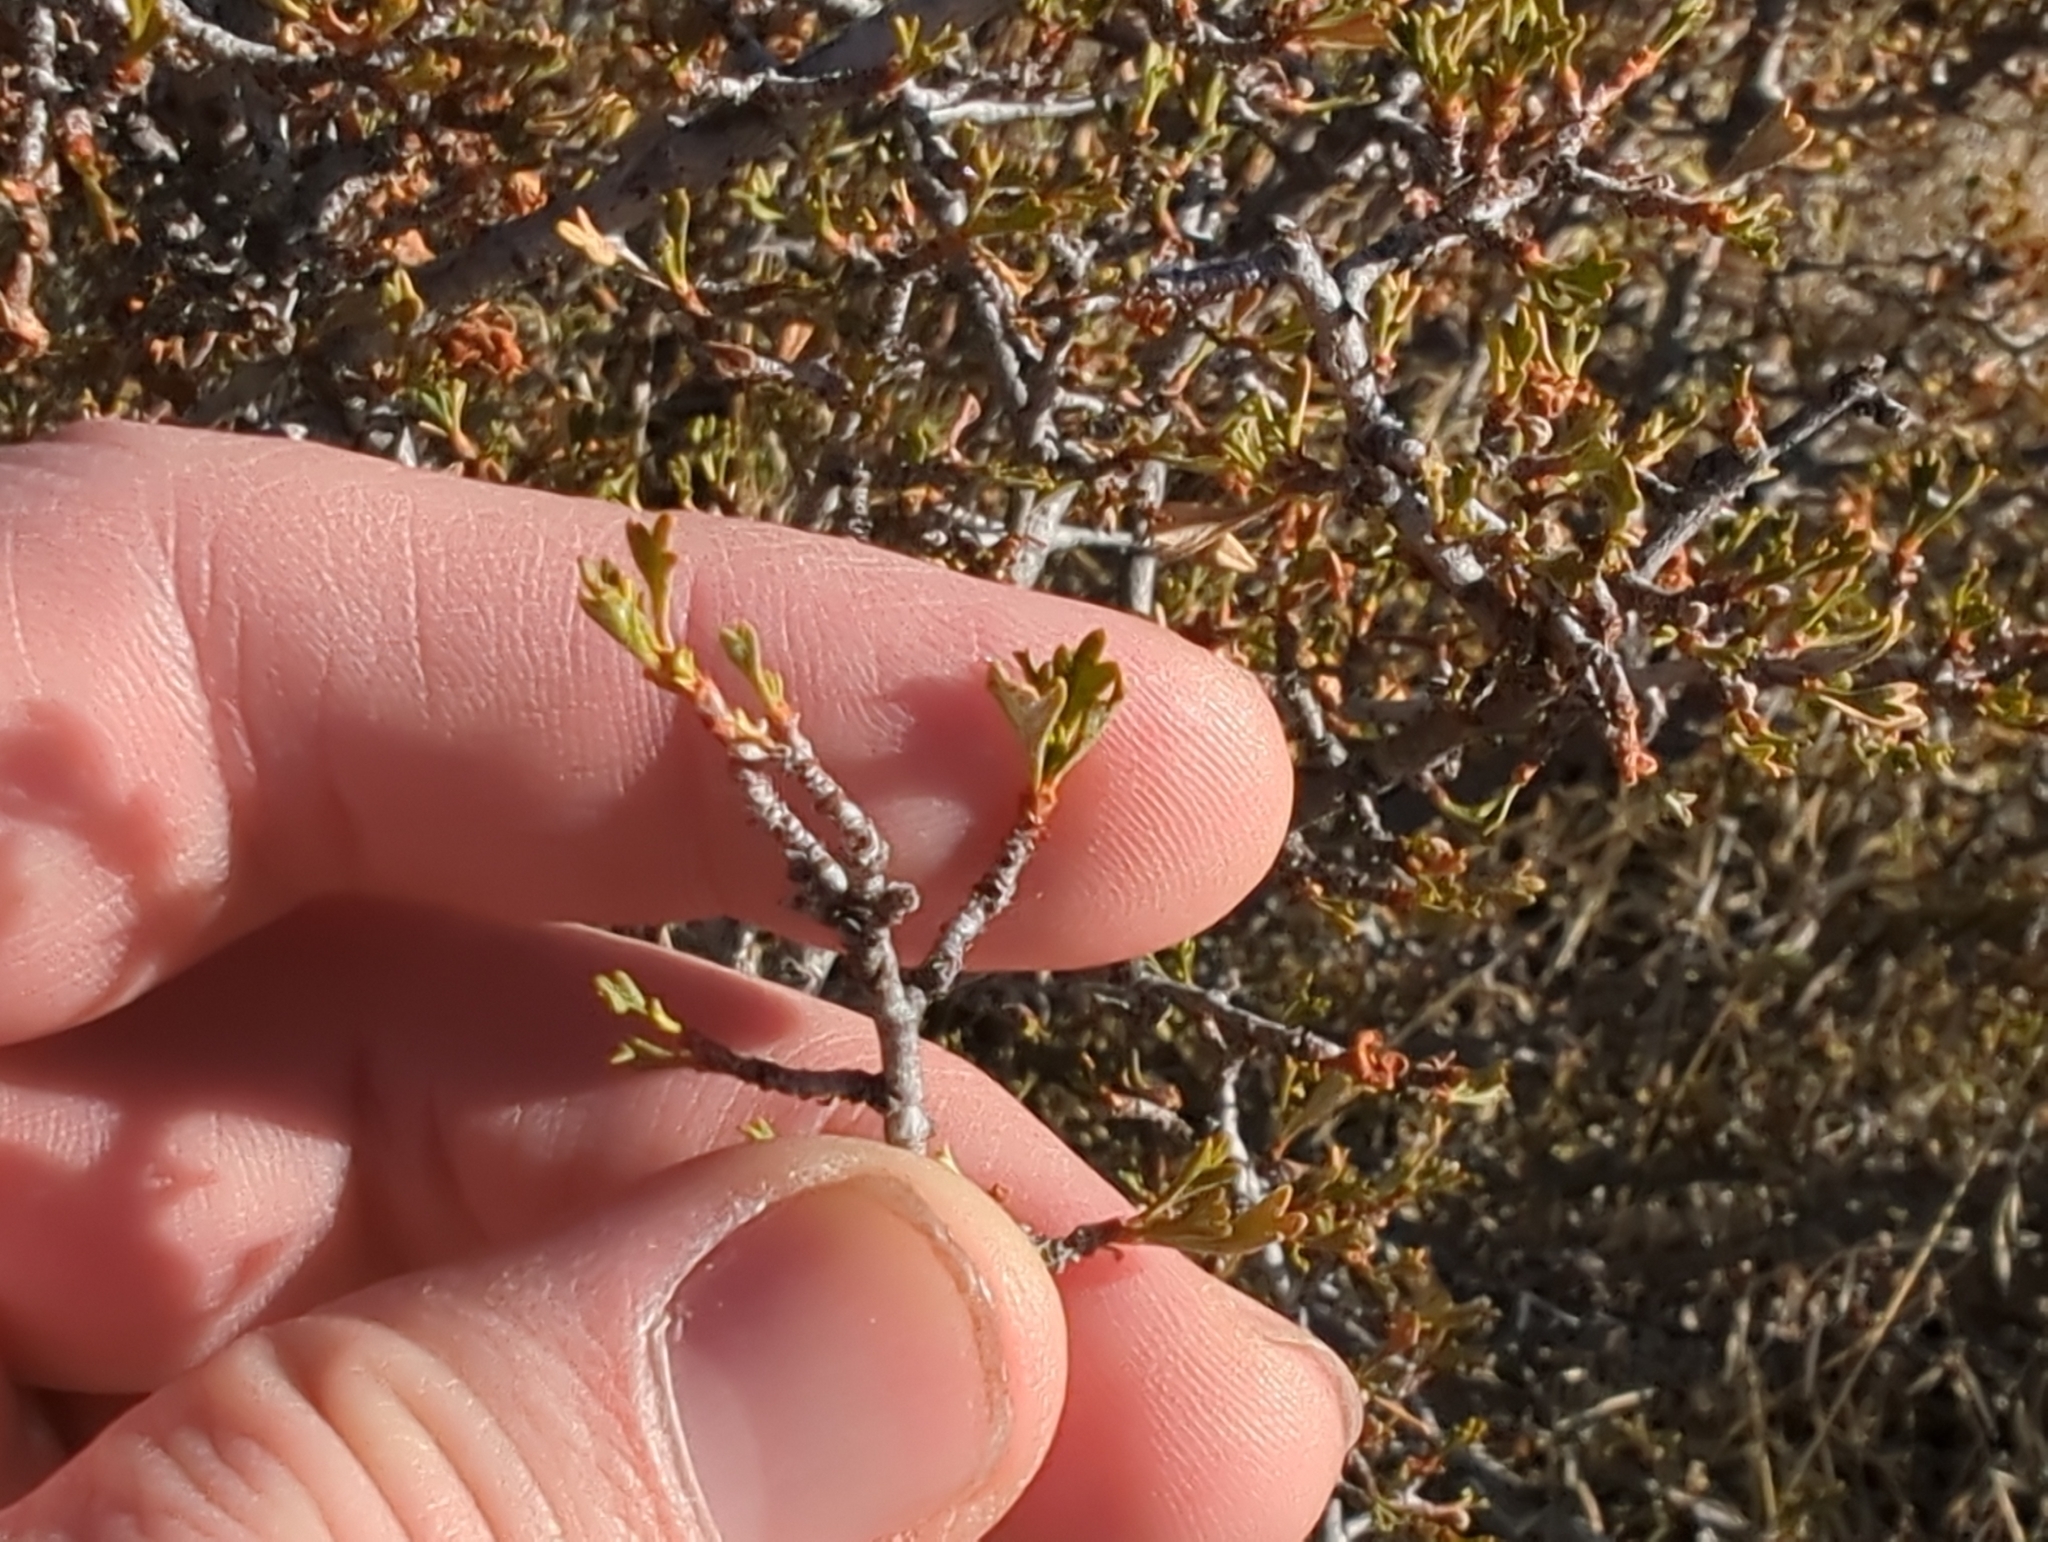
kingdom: Plantae
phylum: Tracheophyta
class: Magnoliopsida
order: Rosales
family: Rosaceae
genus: Purshia
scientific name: Purshia tridentata
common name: Antelope bitterbrush
